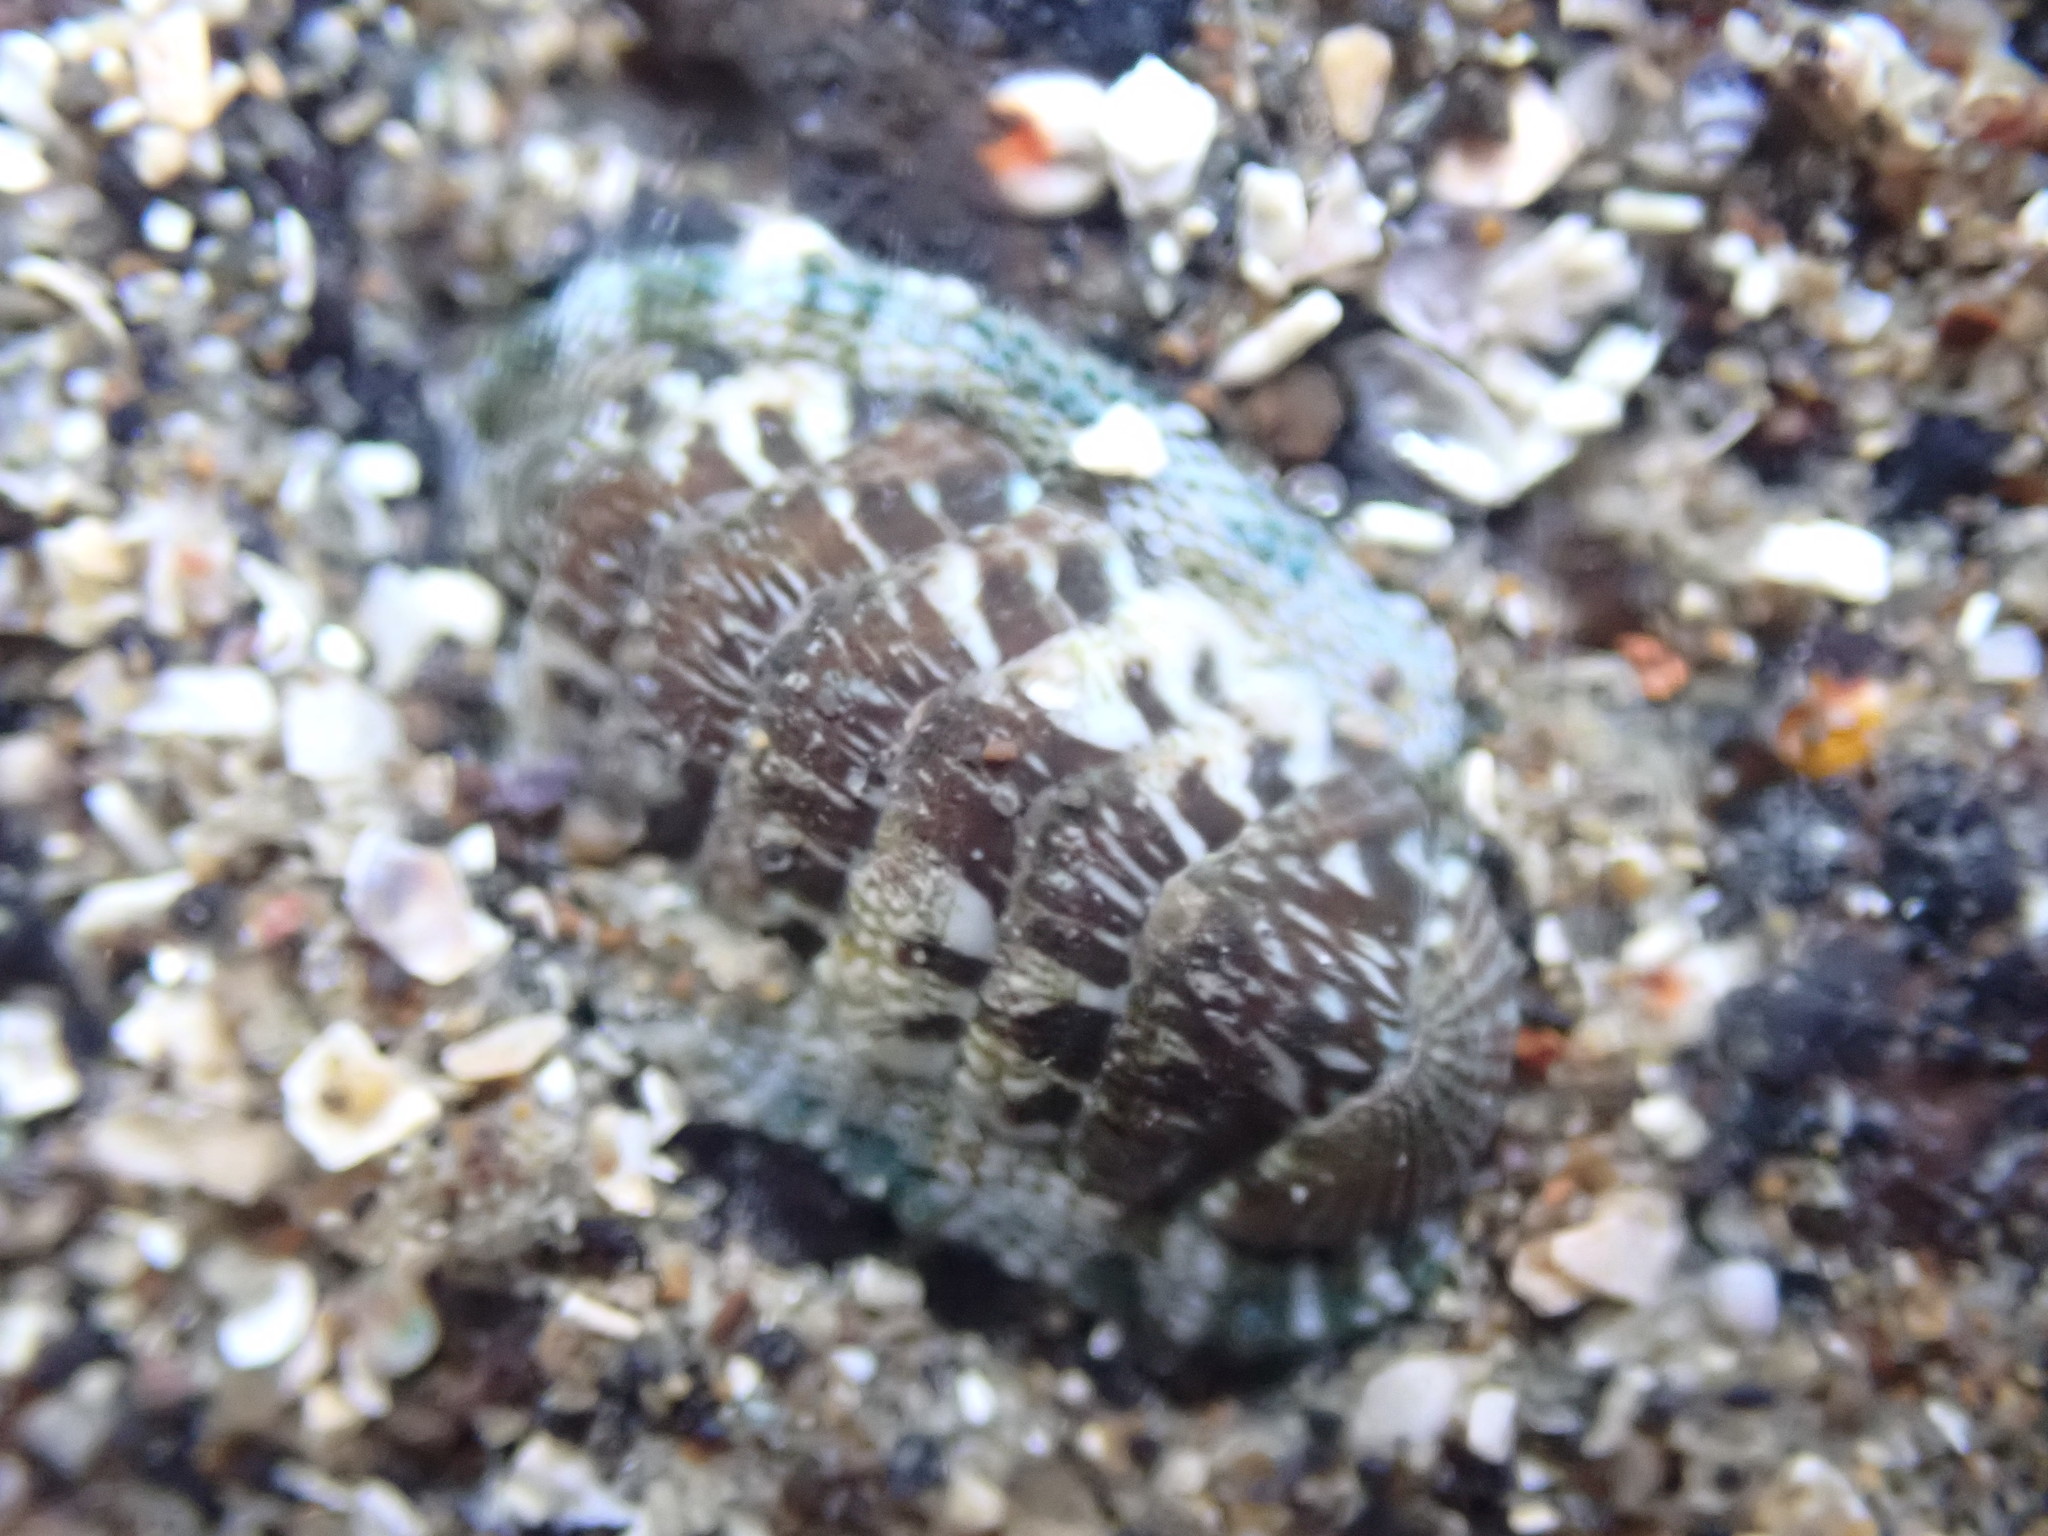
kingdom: Animalia
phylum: Mollusca
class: Polyplacophora
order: Chitonida
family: Chitonidae
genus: Sypharochiton
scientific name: Sypharochiton sinclairi
